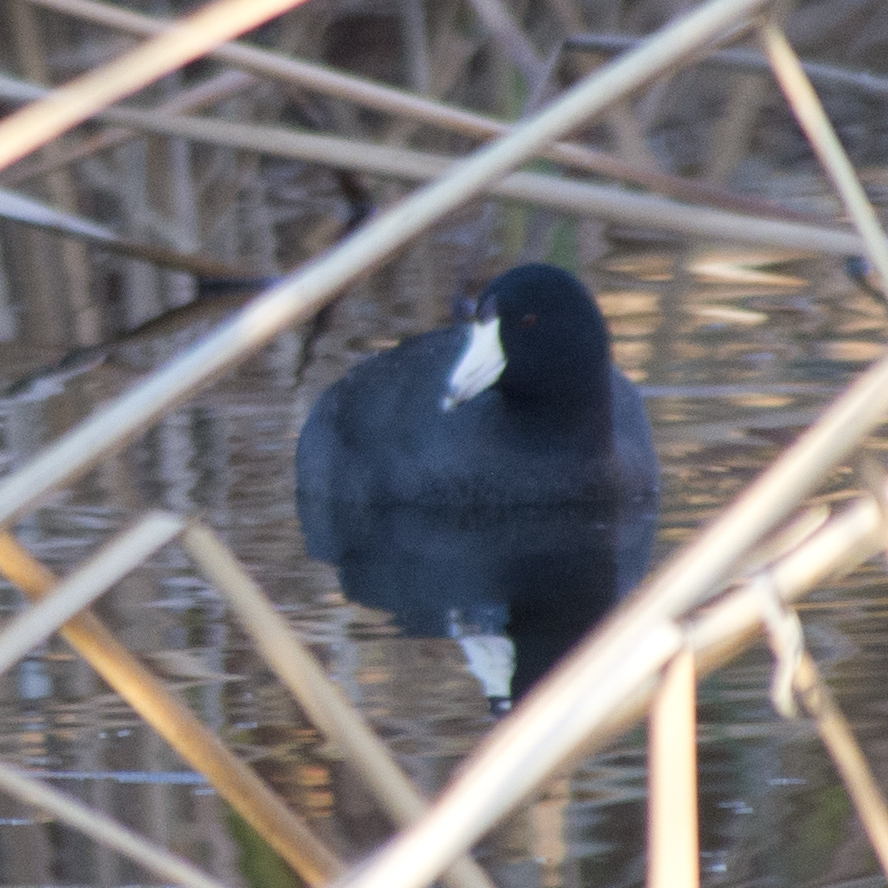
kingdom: Animalia
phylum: Chordata
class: Aves
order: Gruiformes
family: Rallidae
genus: Fulica
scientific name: Fulica americana
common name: American coot
